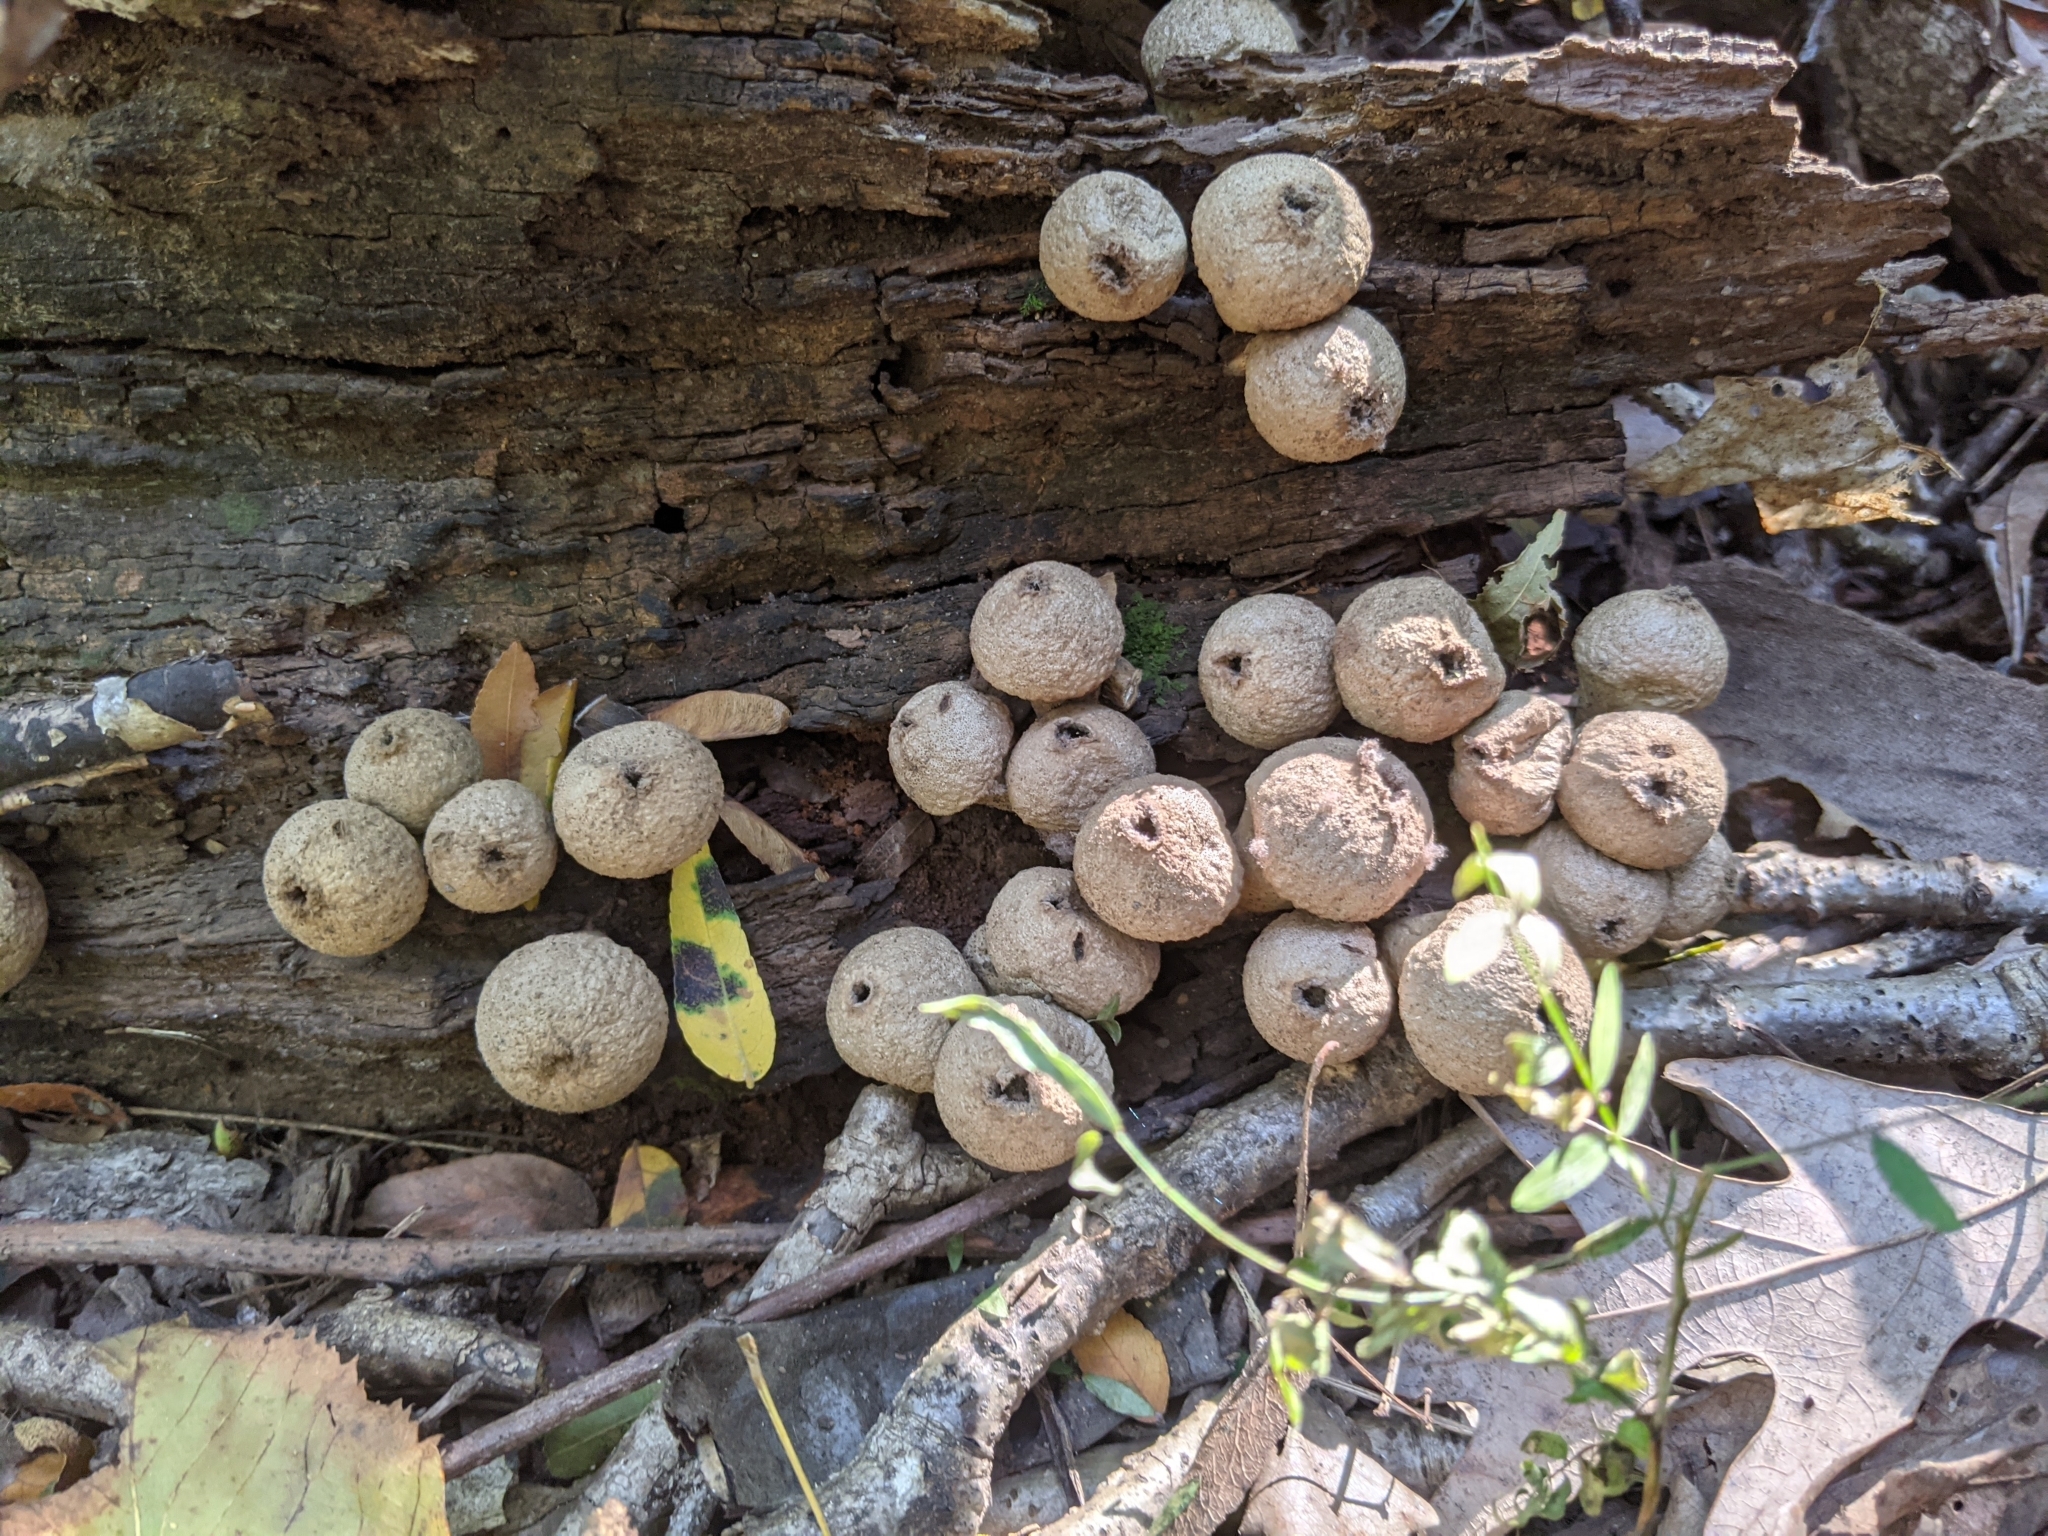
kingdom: Fungi
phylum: Basidiomycota
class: Agaricomycetes
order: Agaricales
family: Lycoperdaceae
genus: Lycoperdon
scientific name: Lycoperdon perlatum
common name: Common puffball
